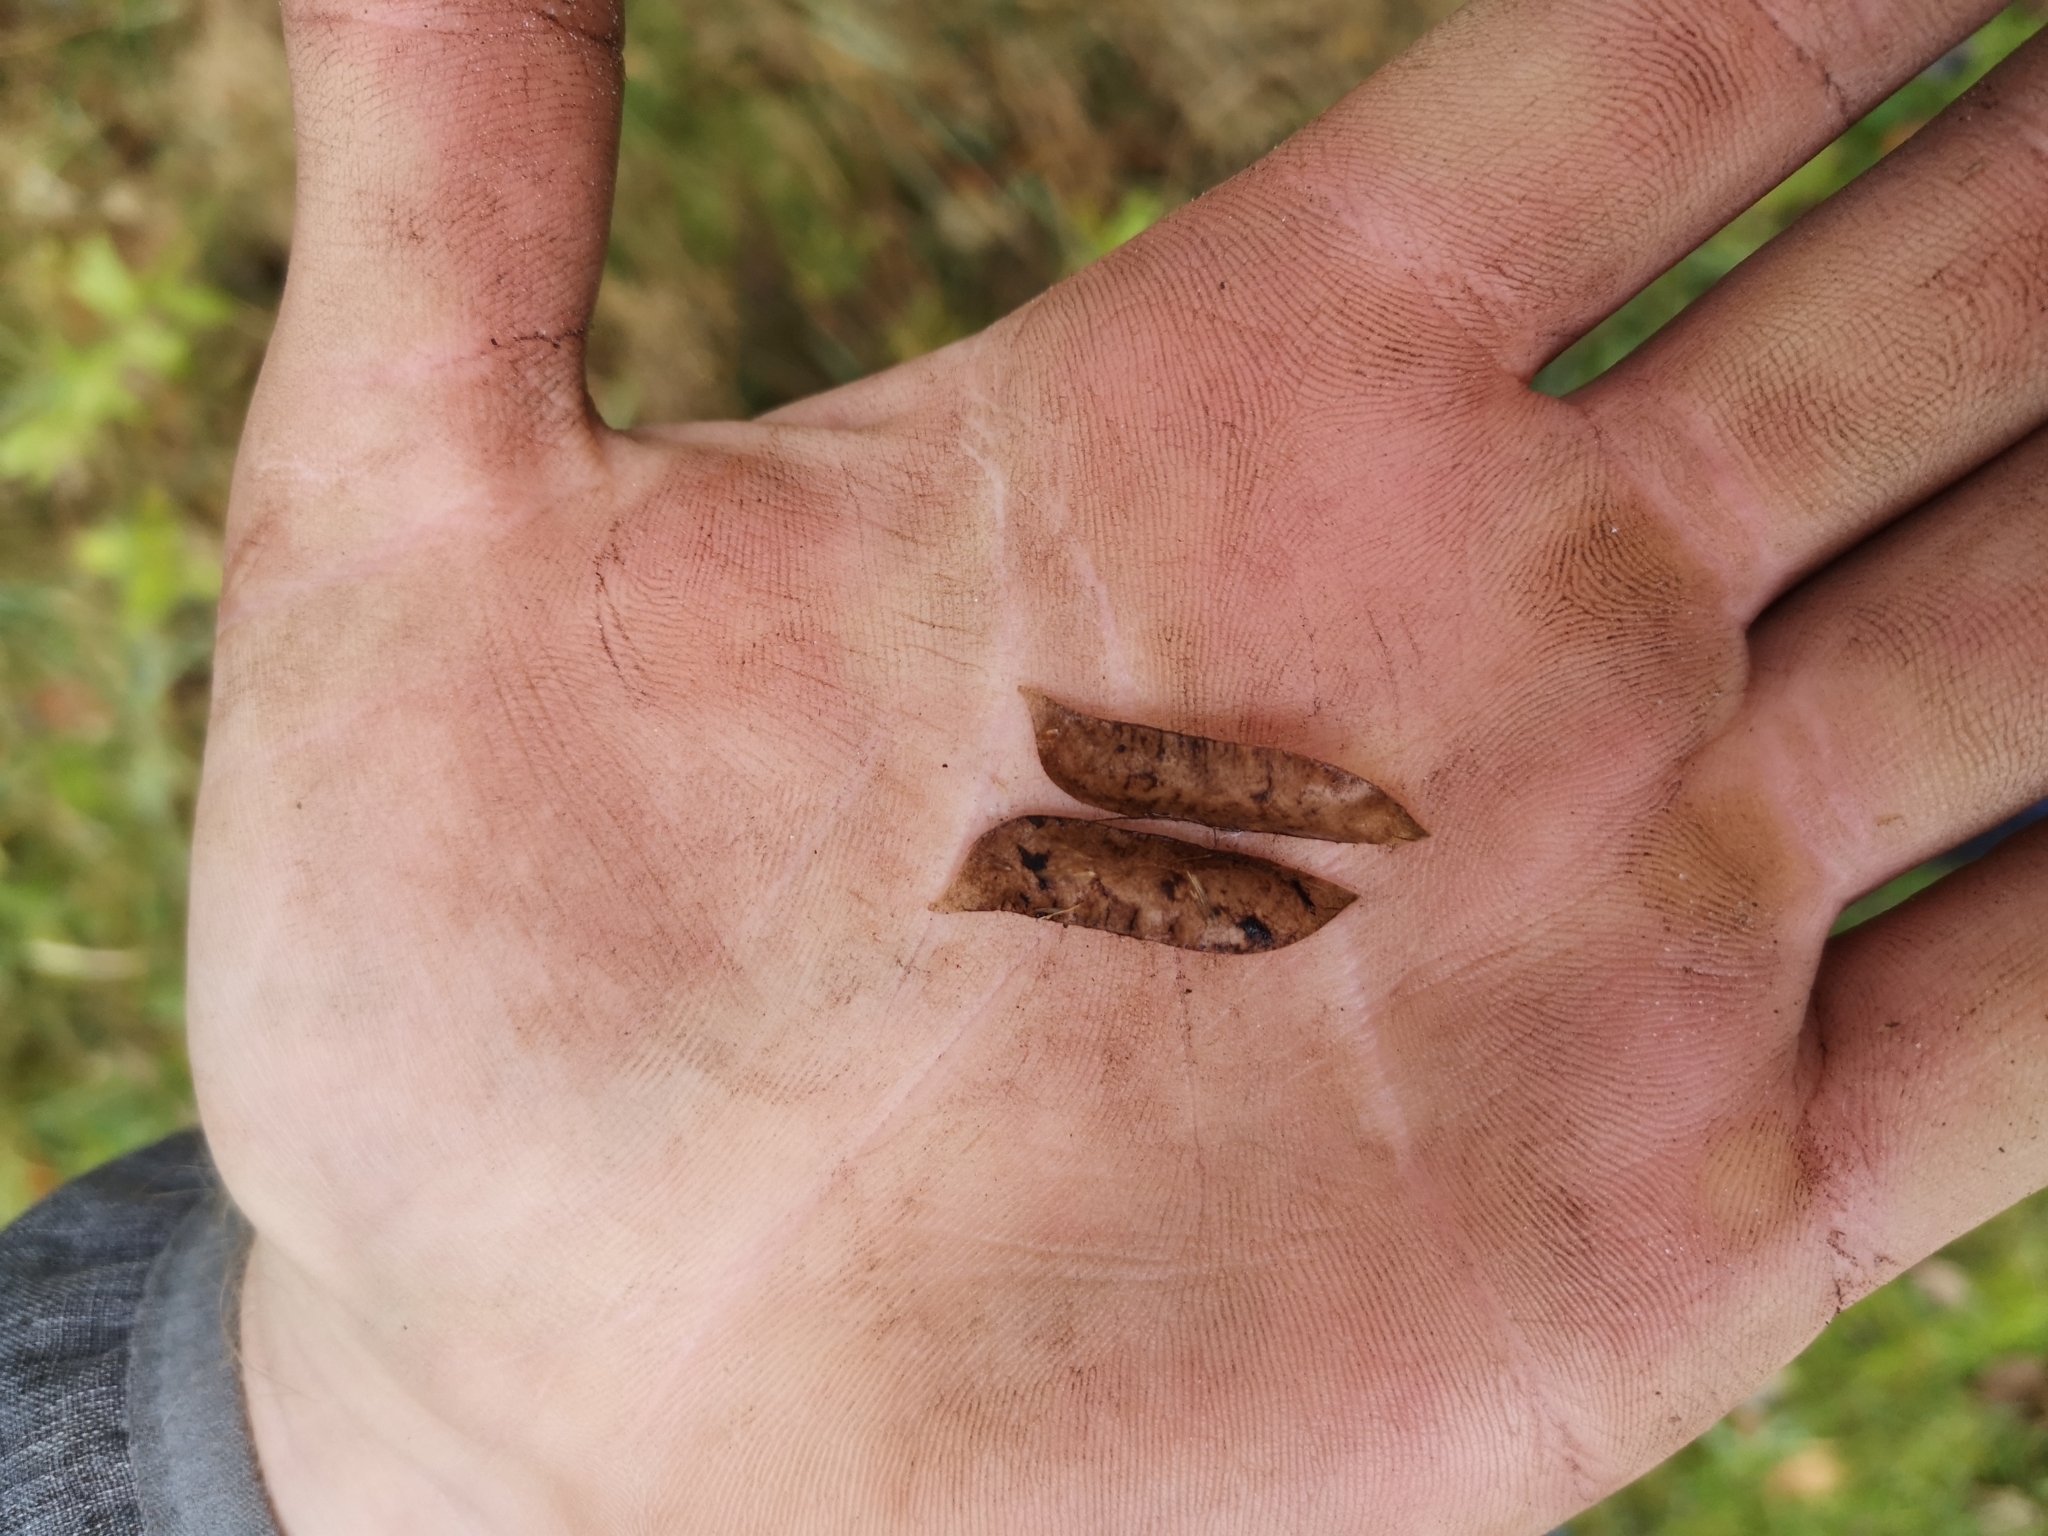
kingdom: Plantae
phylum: Tracheophyta
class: Magnoliopsida
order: Fabales
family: Fabaceae
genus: Vicia
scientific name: Vicia sepium
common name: Bush vetch
